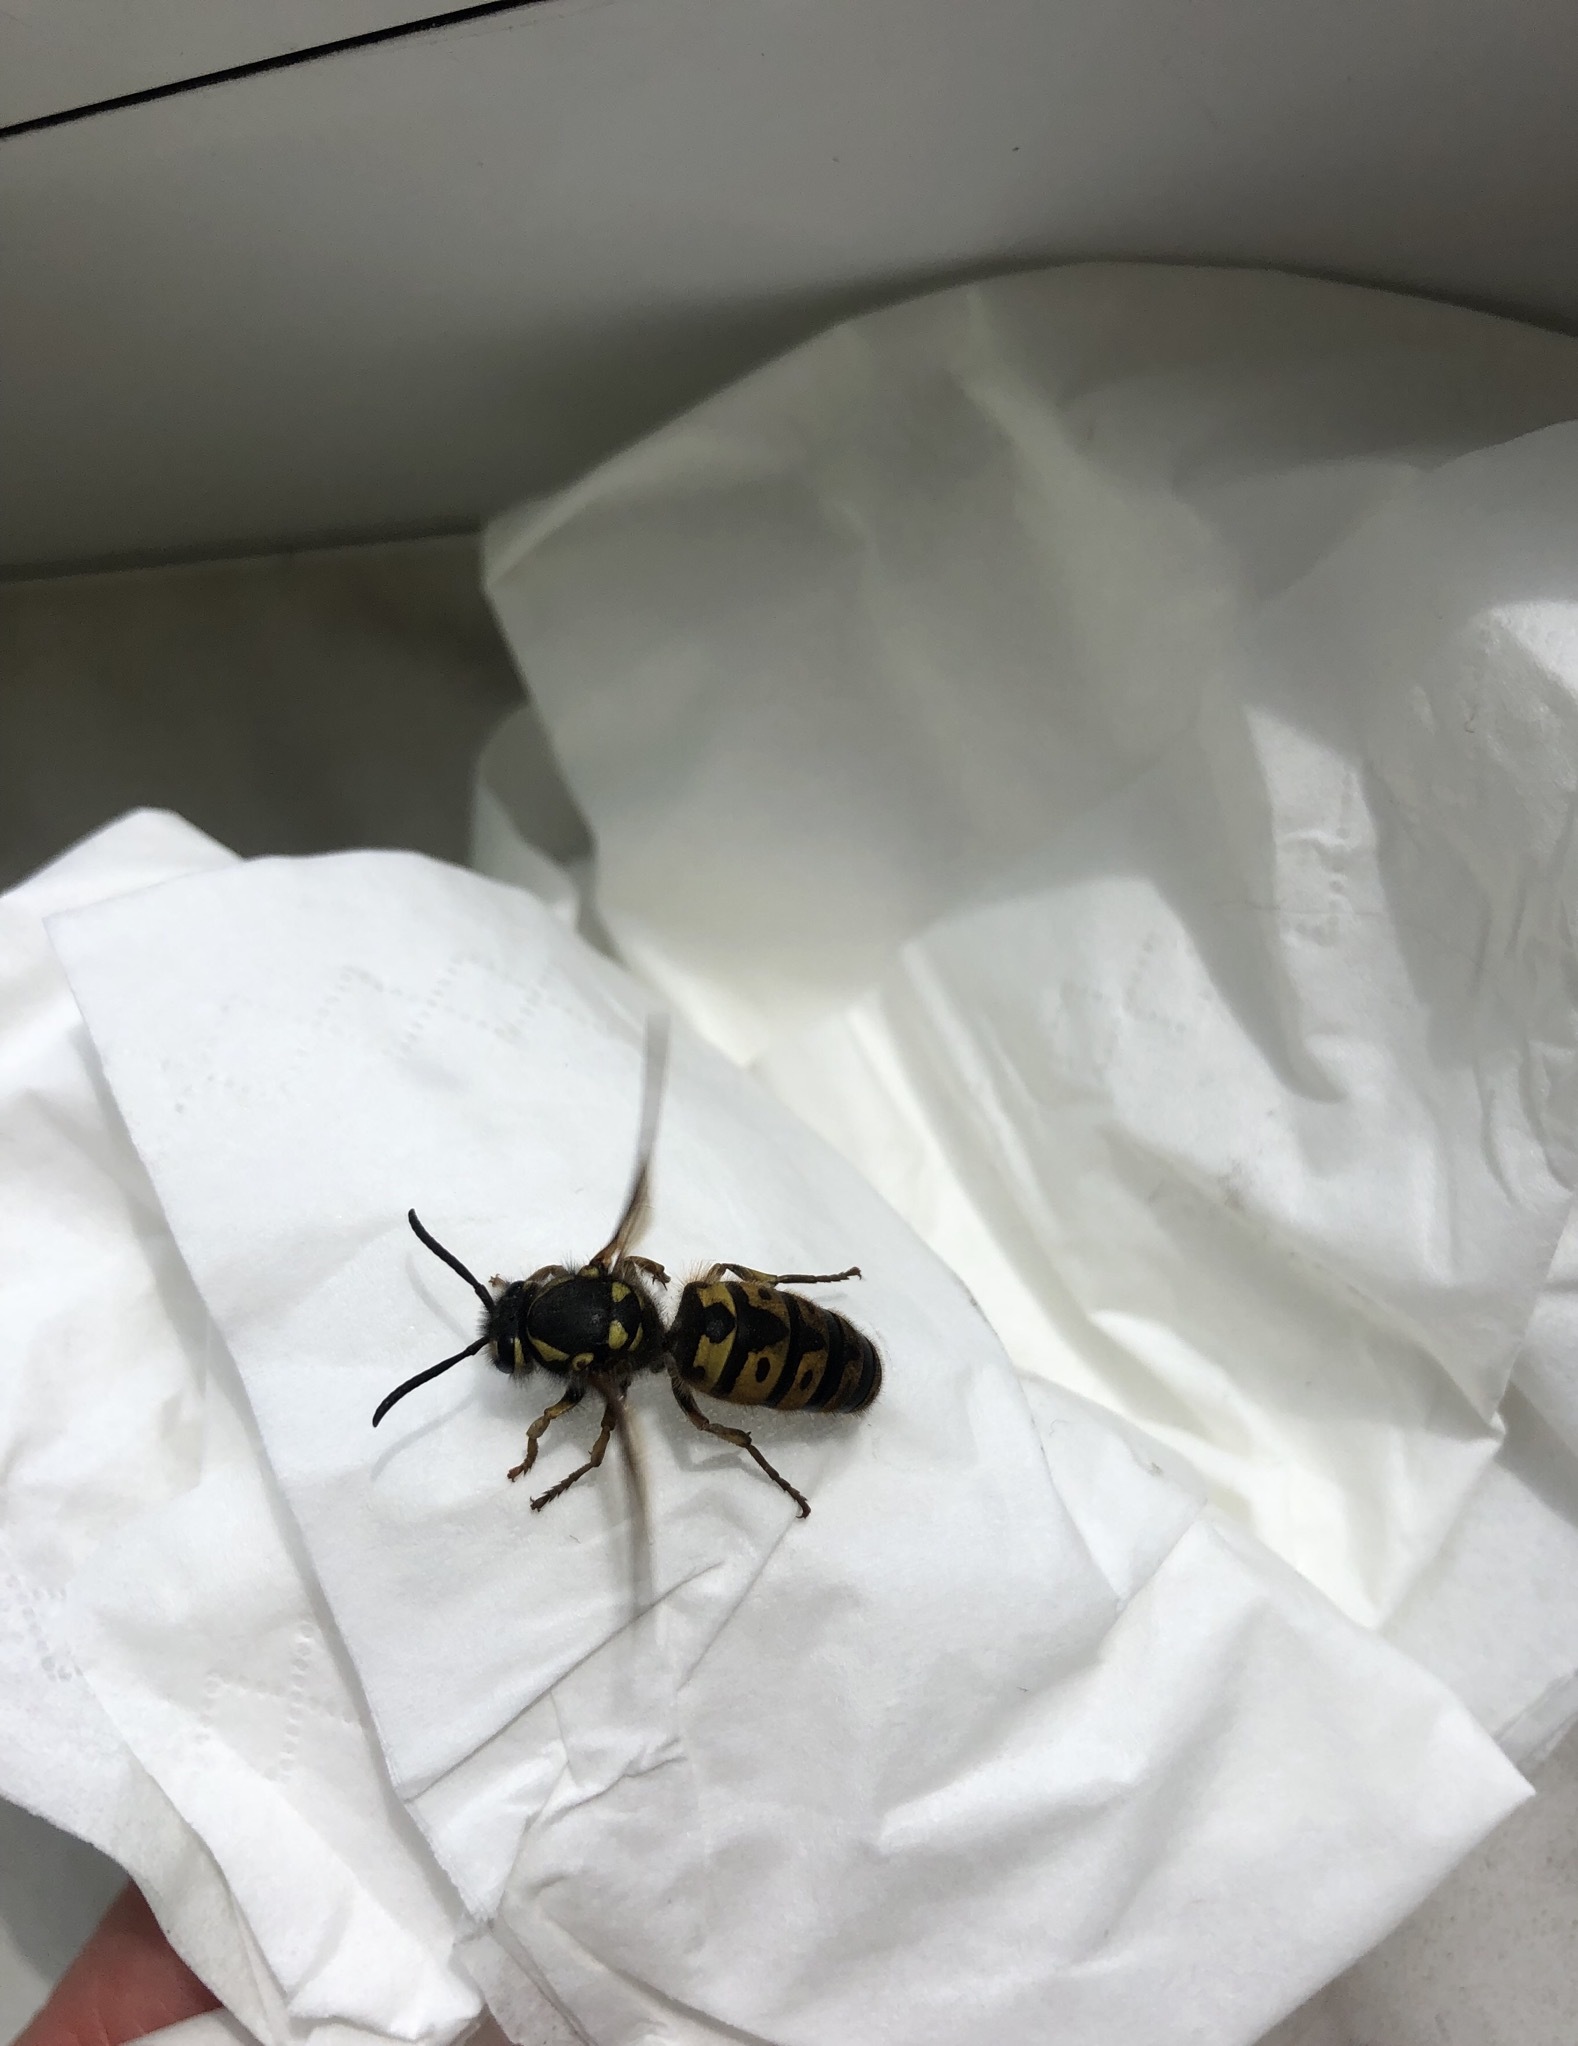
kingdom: Animalia
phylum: Arthropoda
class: Insecta
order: Hymenoptera
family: Vespidae
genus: Vespula
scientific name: Vespula germanica
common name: German wasp
